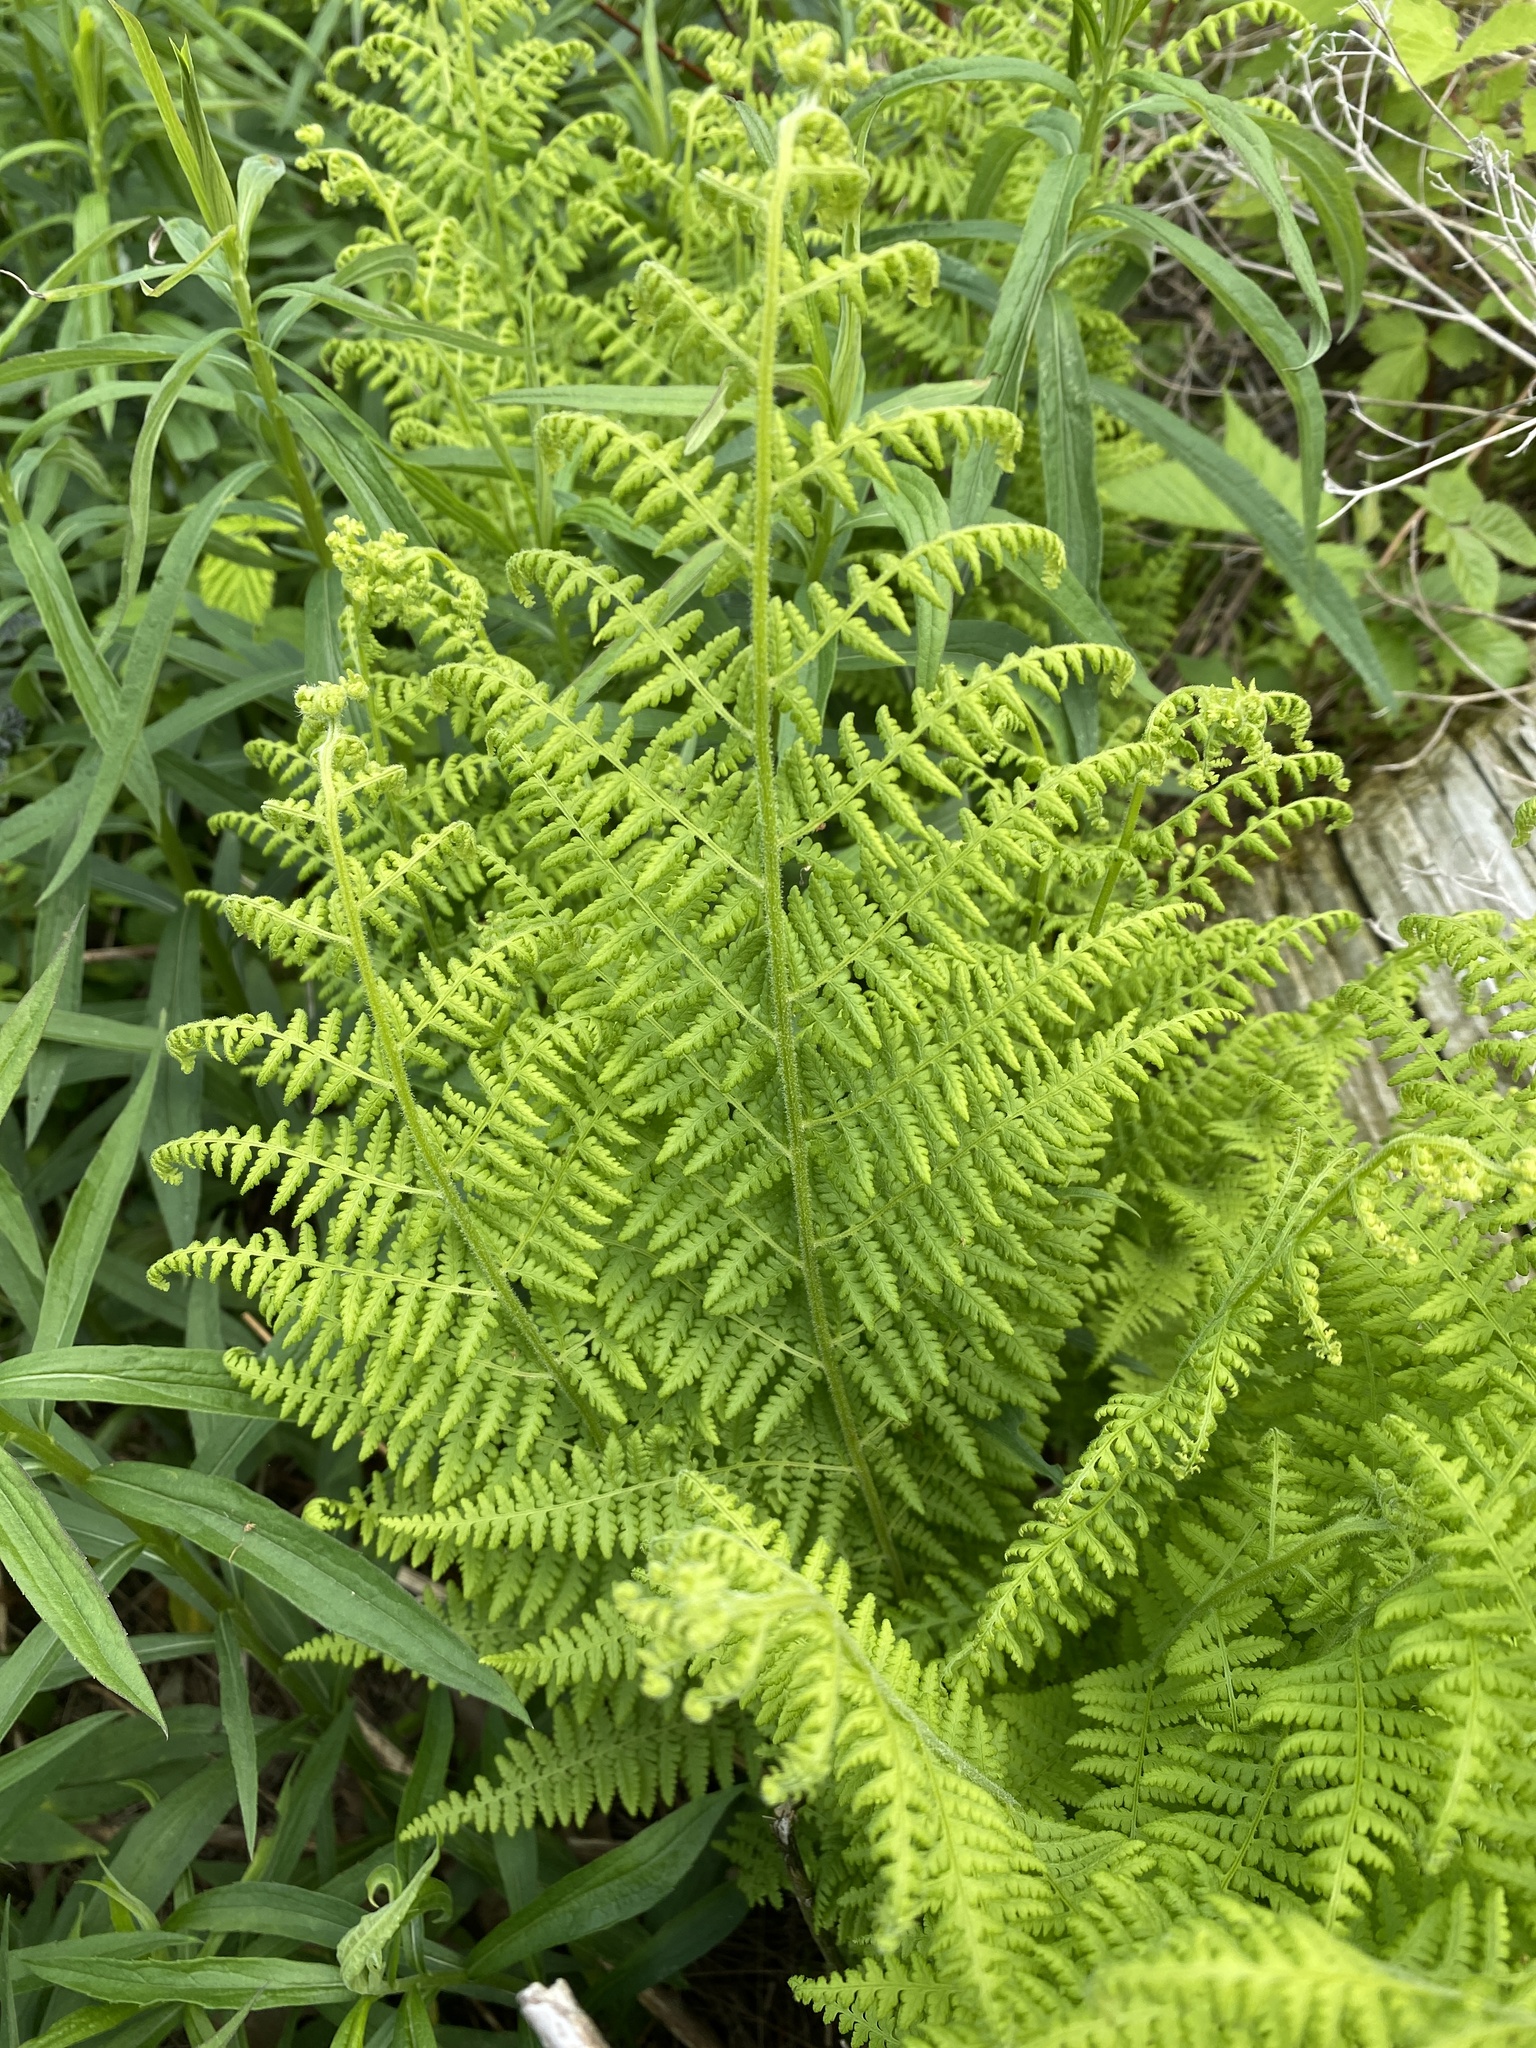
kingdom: Plantae
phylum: Tracheophyta
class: Polypodiopsida
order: Polypodiales
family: Dennstaedtiaceae
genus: Sitobolium
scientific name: Sitobolium punctilobum
